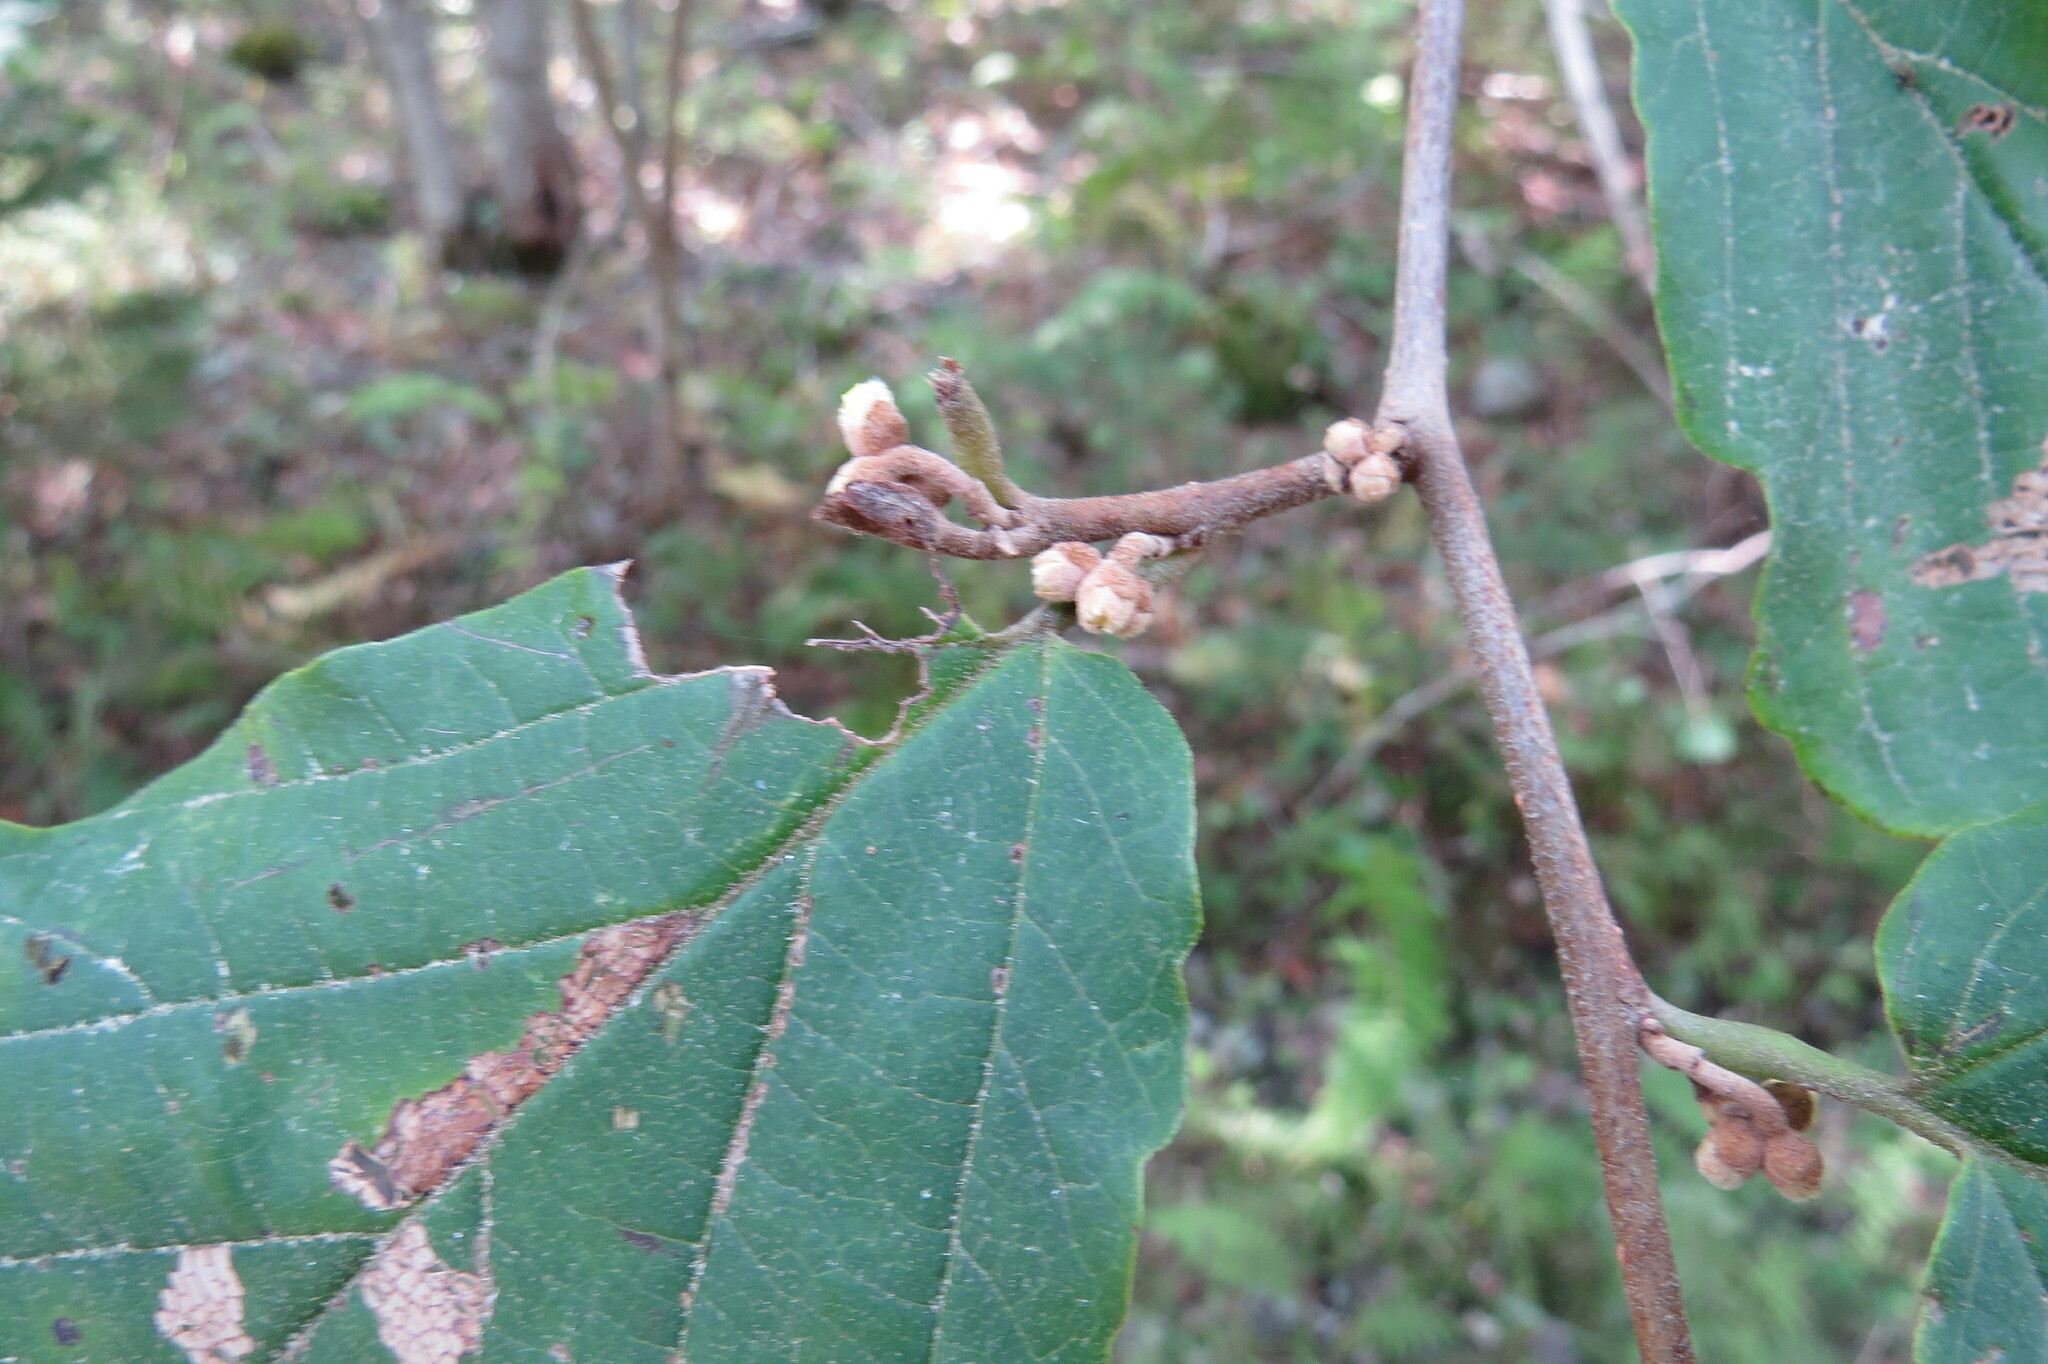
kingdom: Plantae
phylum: Tracheophyta
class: Magnoliopsida
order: Saxifragales
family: Hamamelidaceae
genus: Hamamelis
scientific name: Hamamelis virginiana
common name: Witch-hazel
